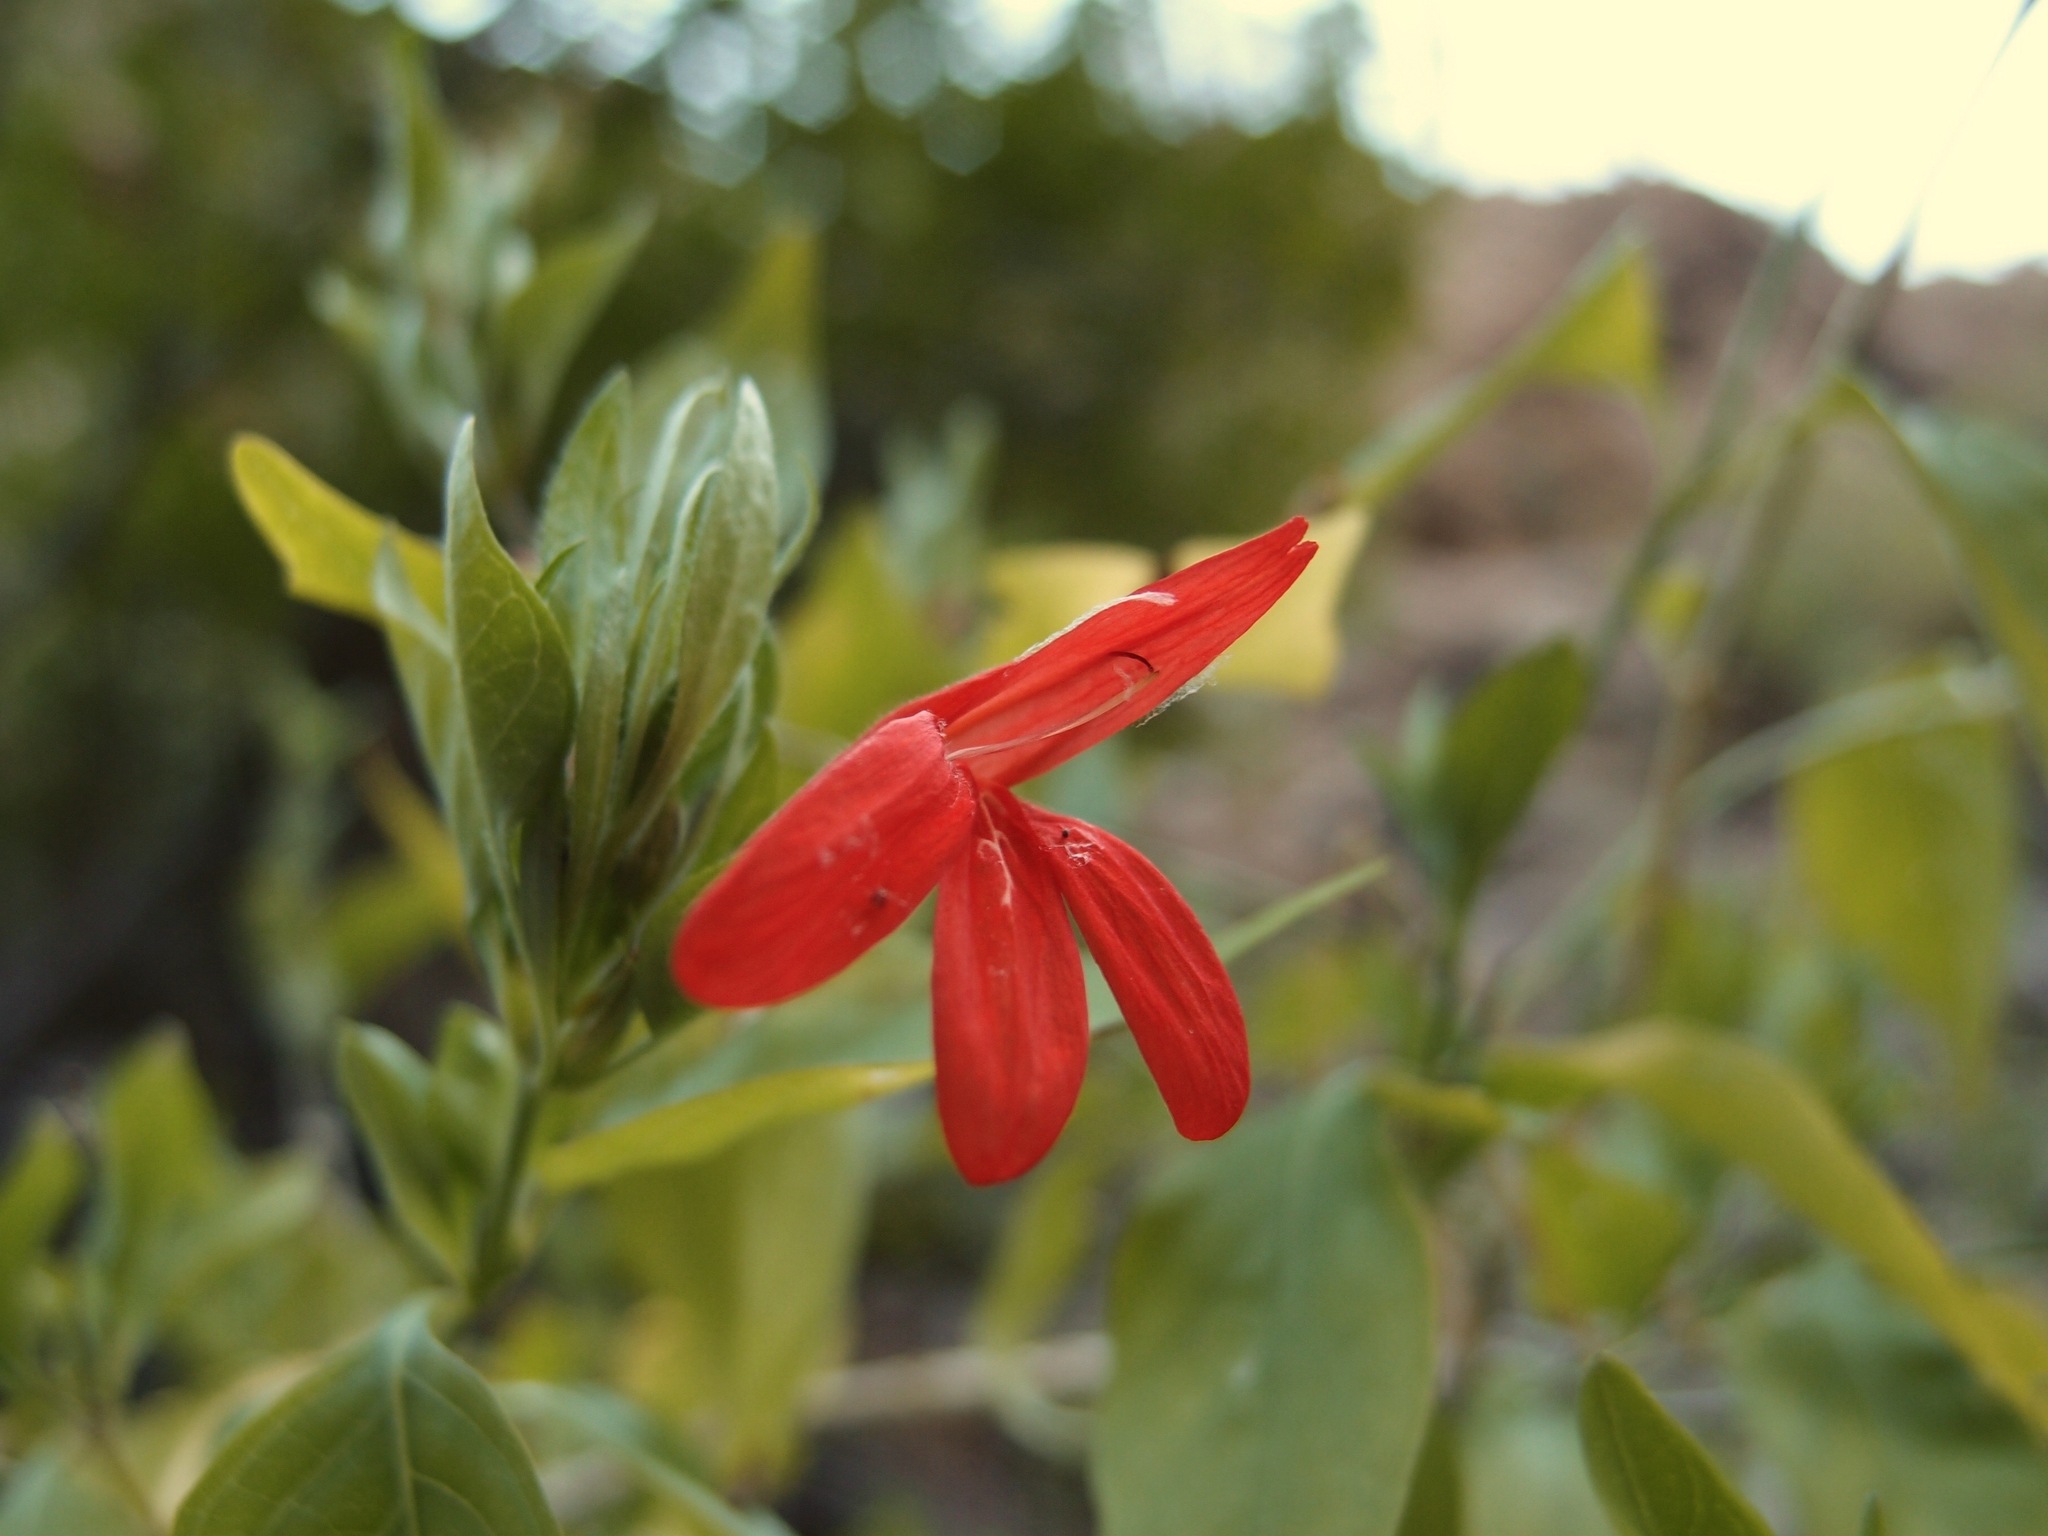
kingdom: Plantae
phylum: Tracheophyta
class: Magnoliopsida
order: Lamiales
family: Acanthaceae
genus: Dianthera
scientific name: Dianthera candicans
